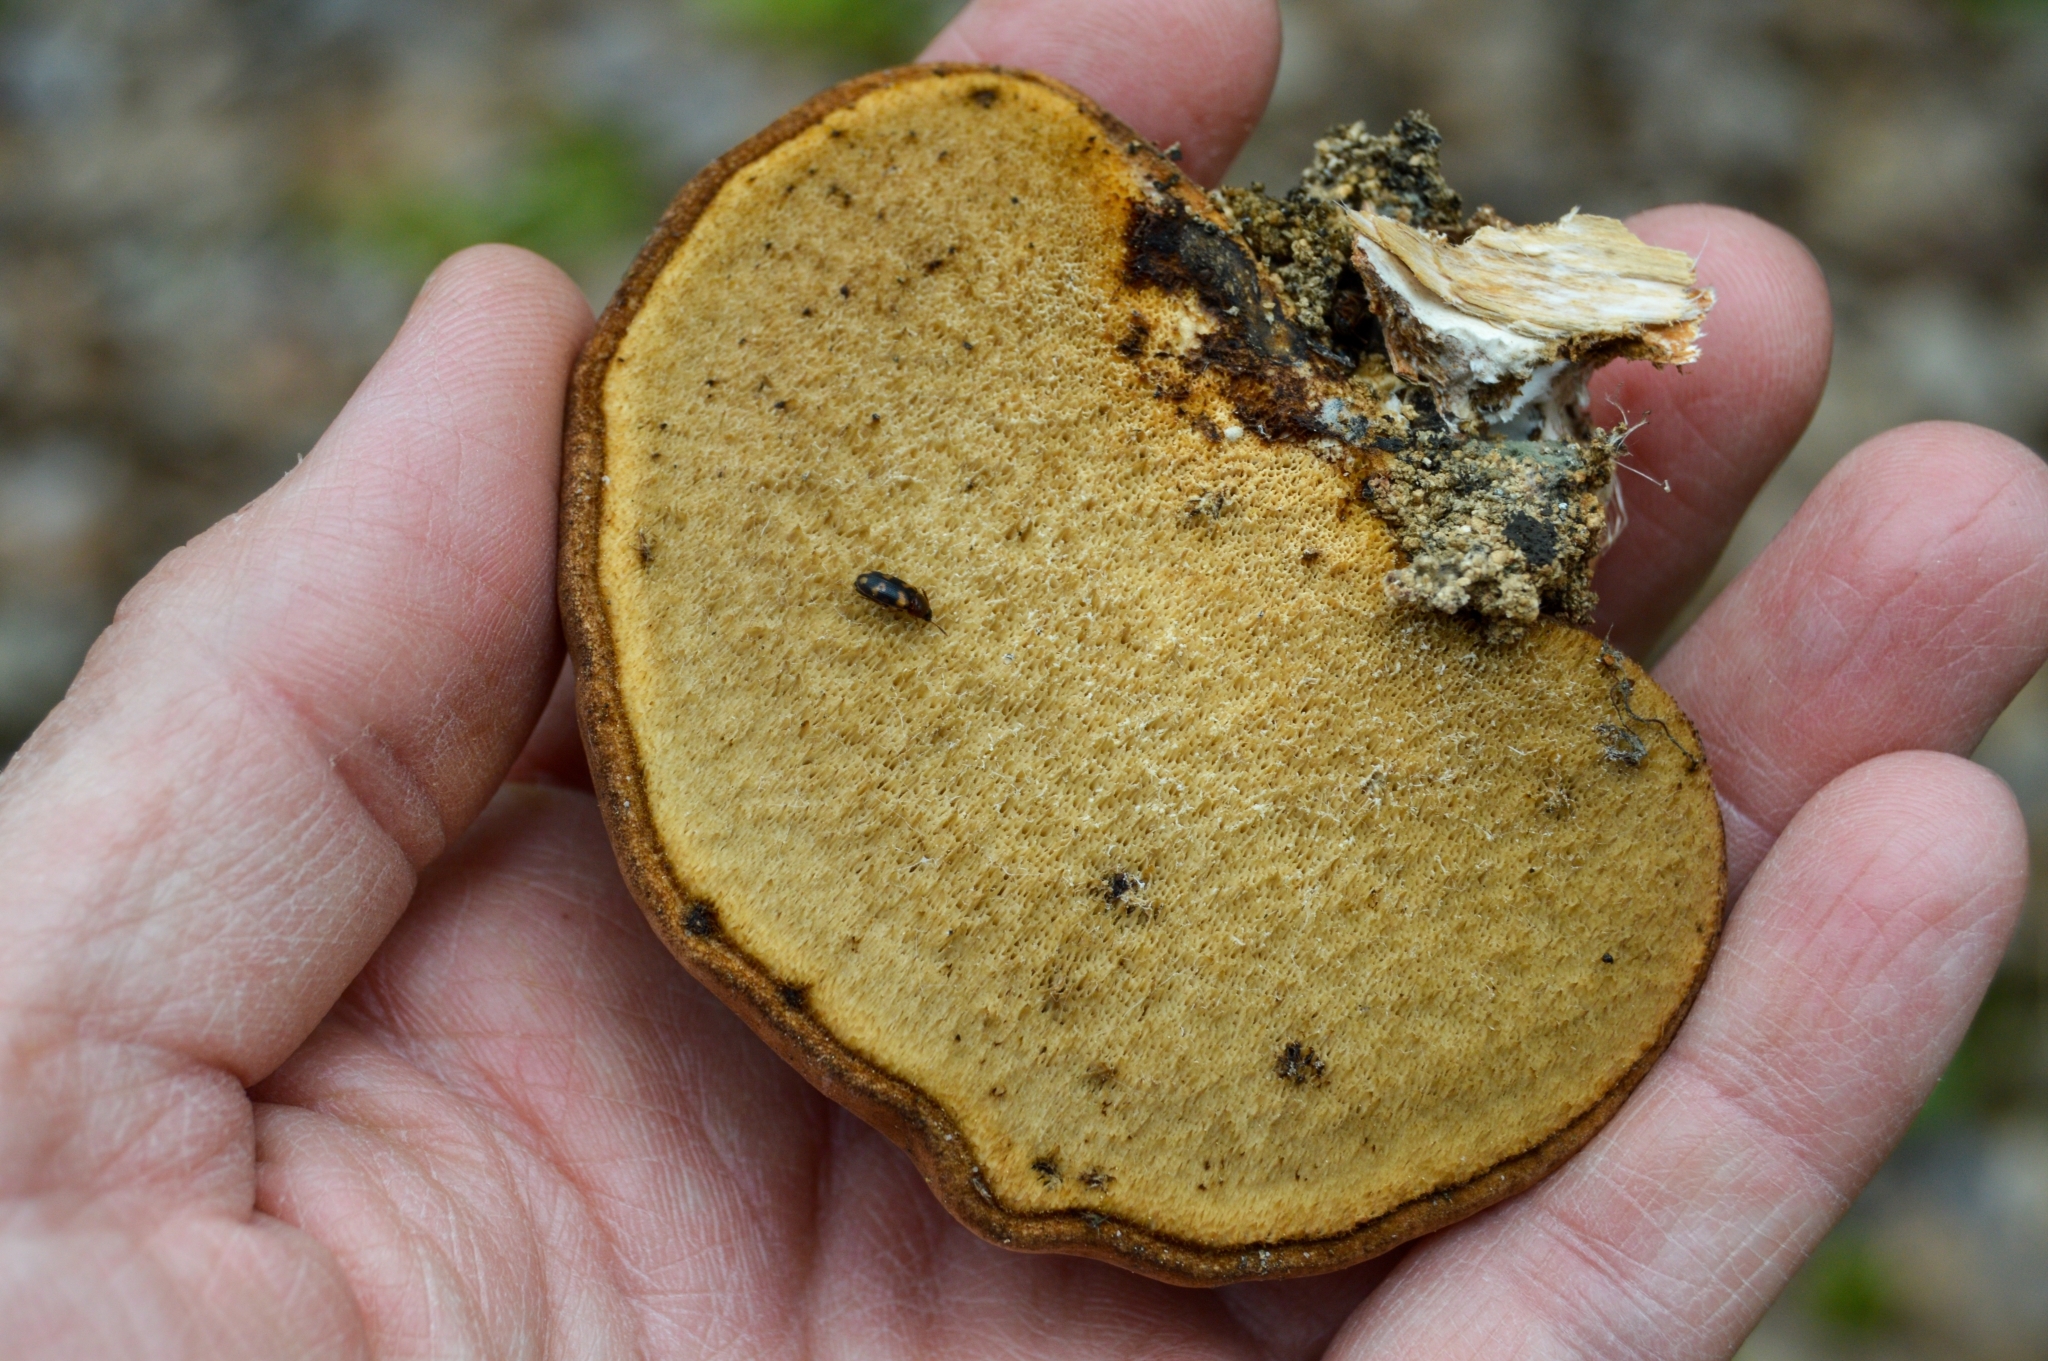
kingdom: Fungi
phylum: Basidiomycota
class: Agaricomycetes
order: Polyporales
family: Fomitopsidaceae
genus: Fomitopsis
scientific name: Fomitopsis betulina
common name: Birch polypore
